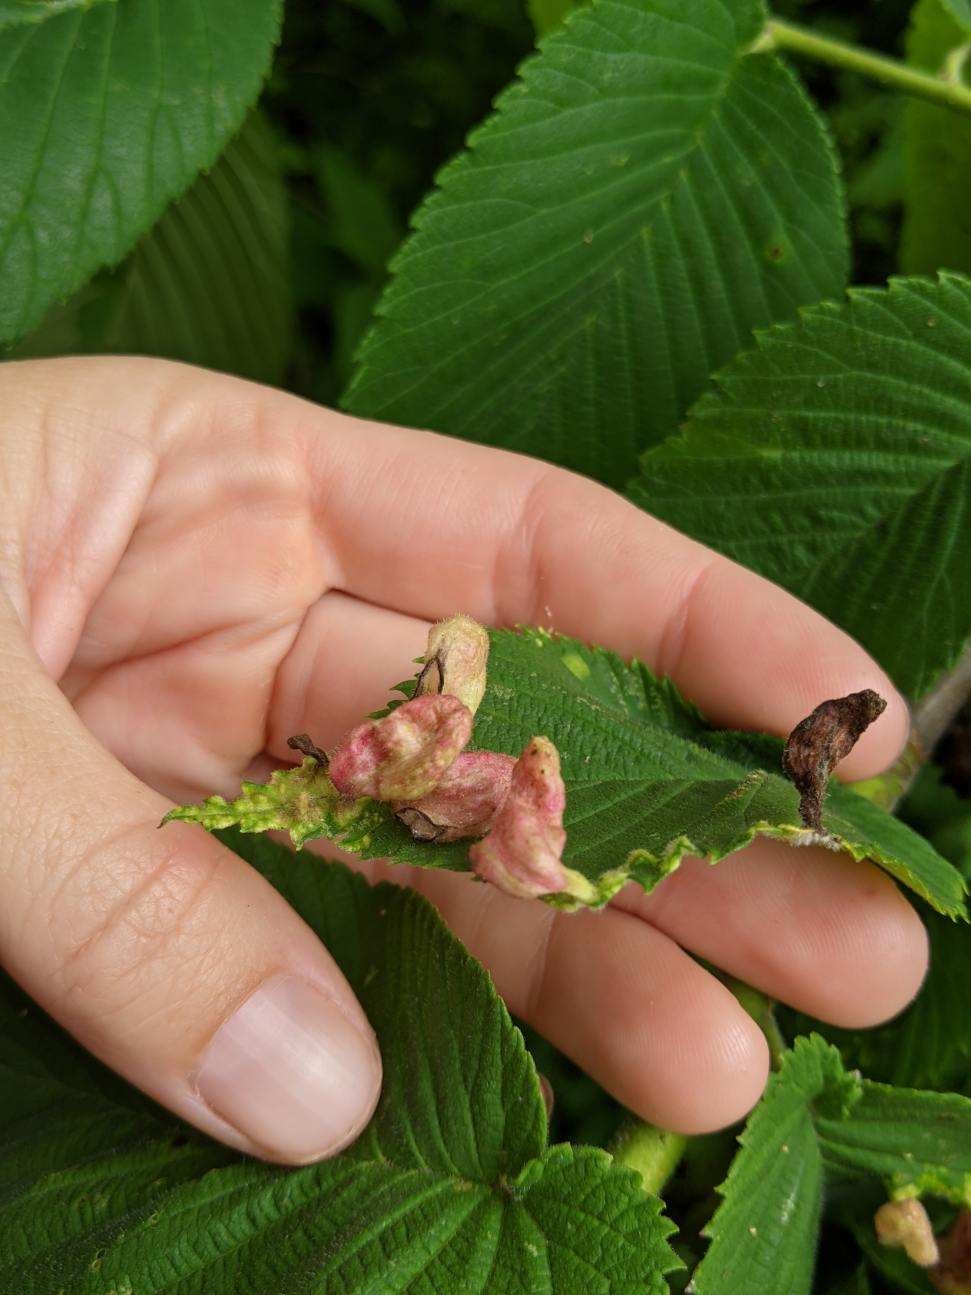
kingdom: Animalia
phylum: Arthropoda
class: Insecta
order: Hemiptera
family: Aphididae
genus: Tetraneura
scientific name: Tetraneura nigriabdominalis
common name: Aphid
